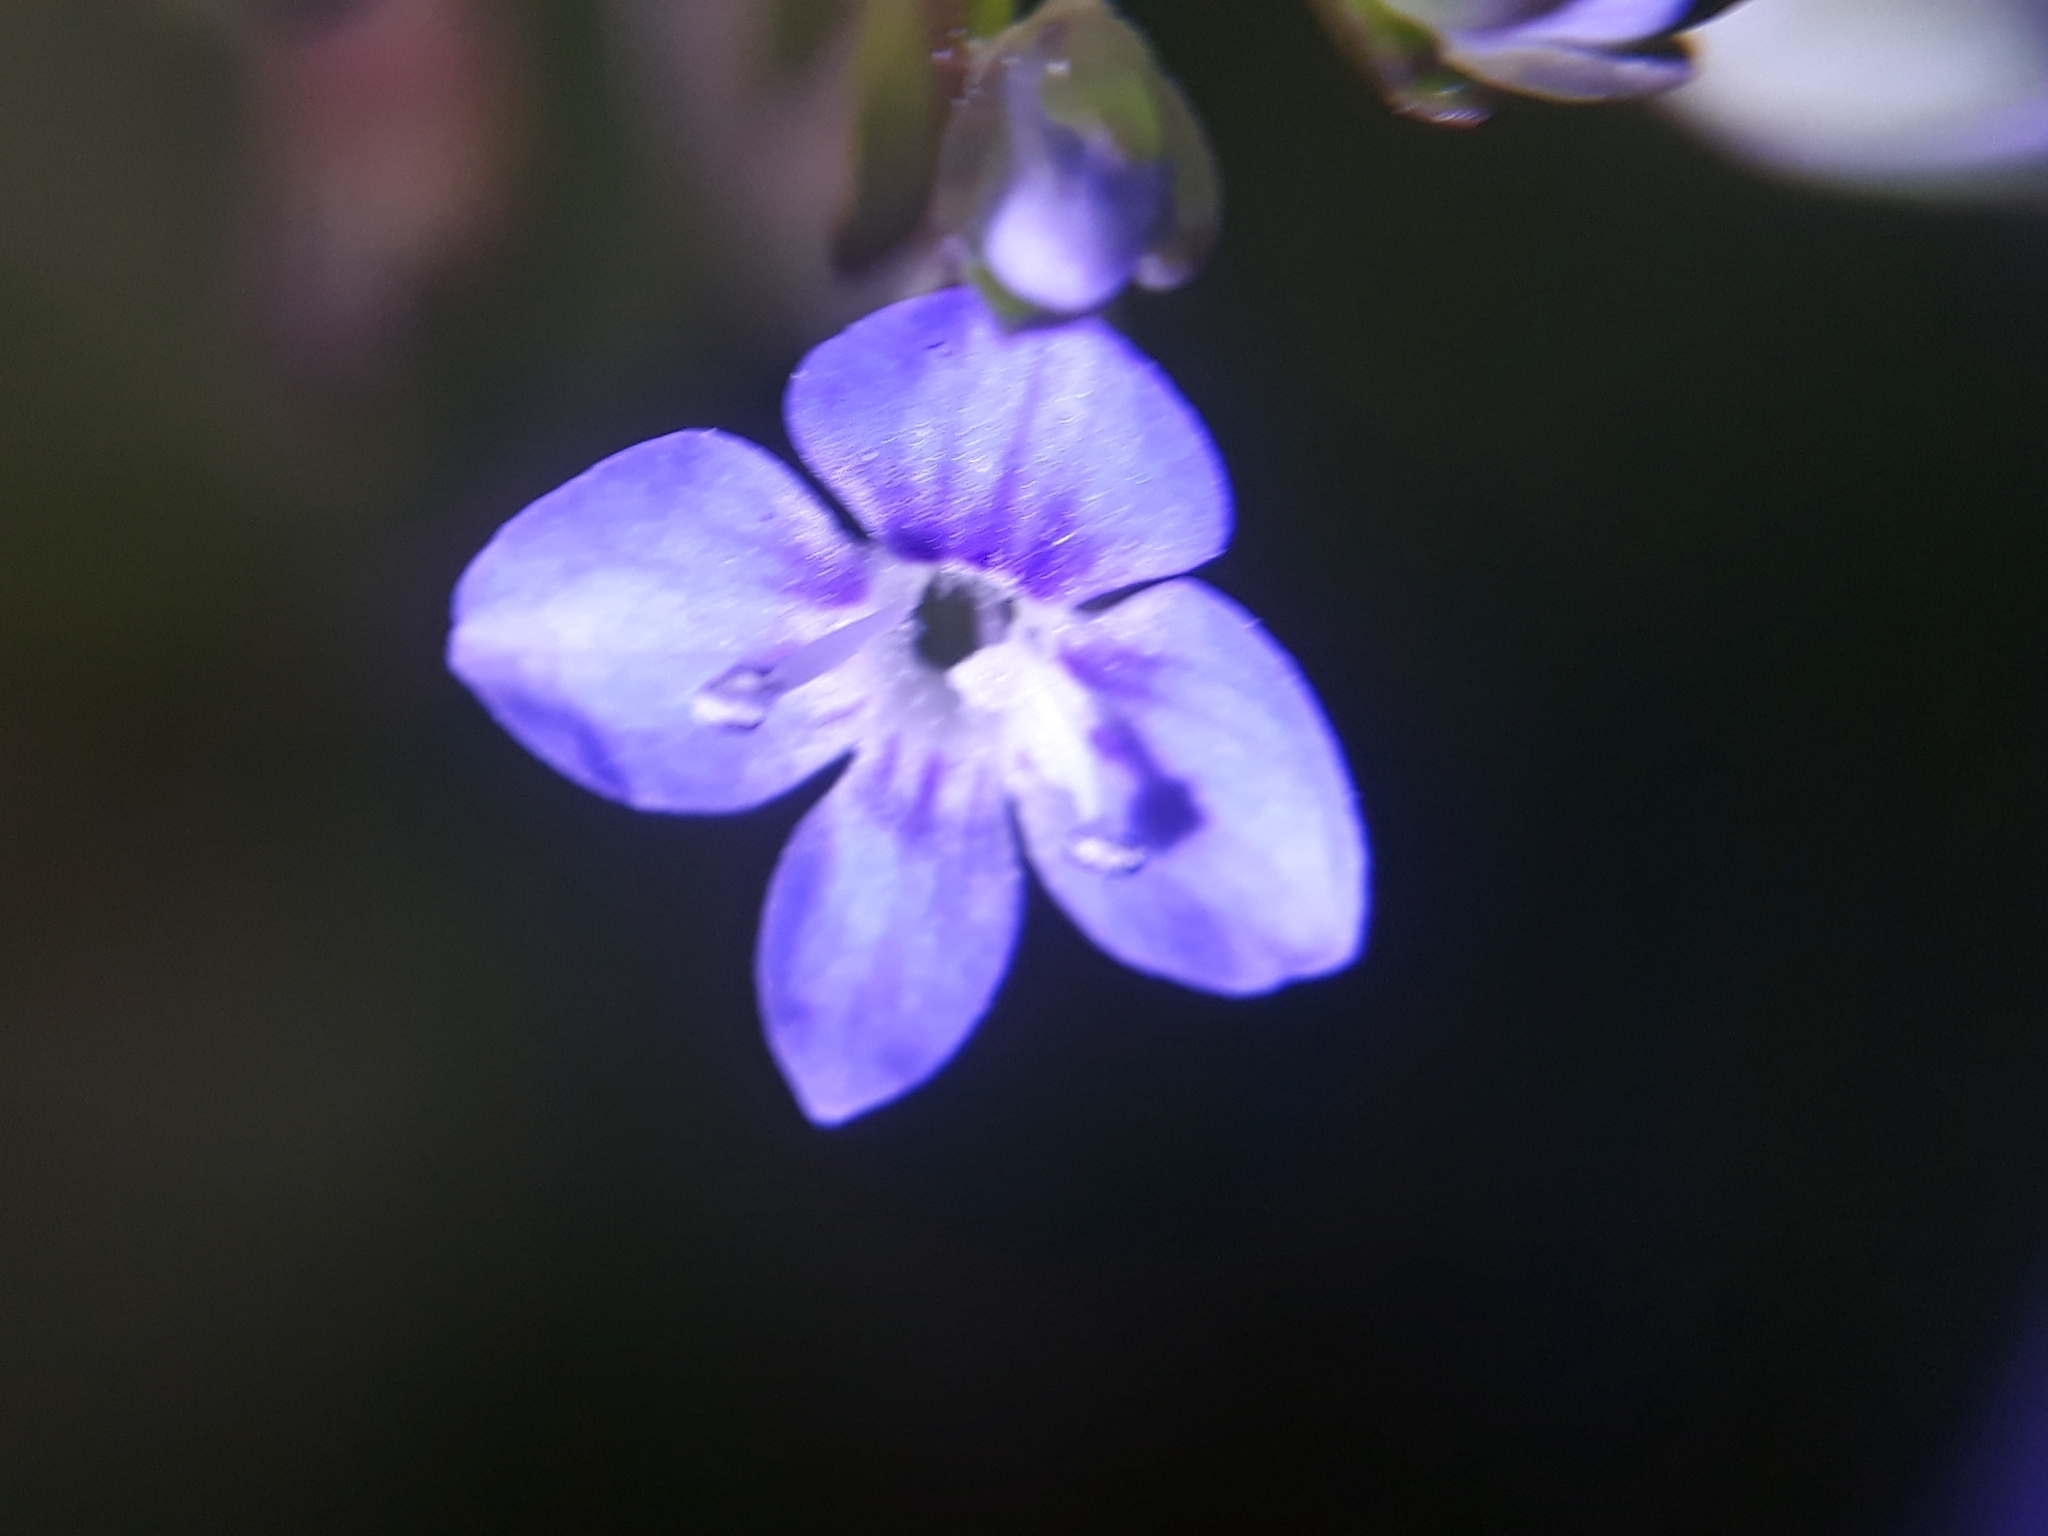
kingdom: Plantae
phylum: Tracheophyta
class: Magnoliopsida
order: Lamiales
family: Plantaginaceae
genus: Veronica
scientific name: Veronica beccabunga
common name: Brooklime
